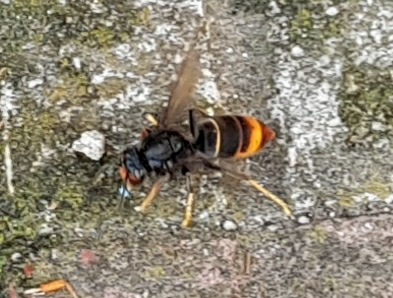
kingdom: Animalia
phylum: Arthropoda
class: Insecta
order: Hymenoptera
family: Vespidae
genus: Vespa
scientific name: Vespa velutina
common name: Asian hornet
